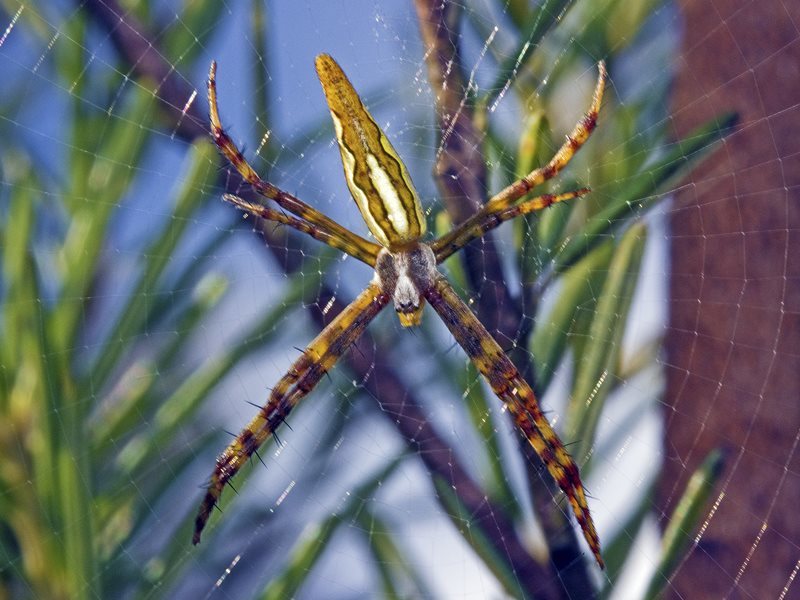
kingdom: Animalia
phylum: Arthropoda
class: Arachnida
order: Araneae
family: Araneidae
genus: Argiope
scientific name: Argiope probata
